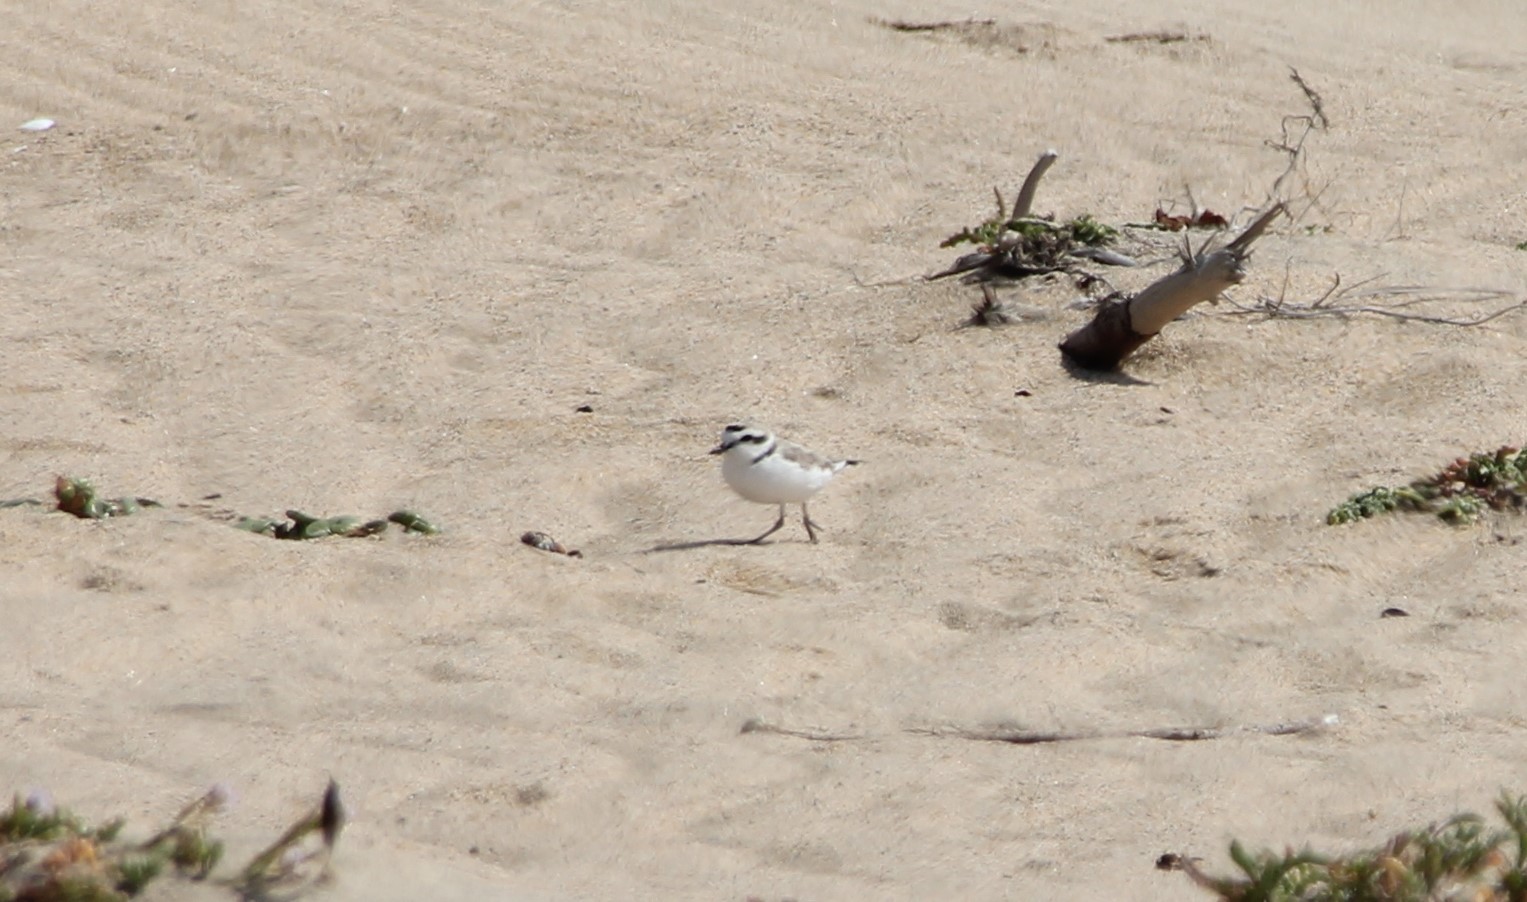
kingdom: Animalia
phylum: Chordata
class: Aves
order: Charadriiformes
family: Charadriidae
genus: Anarhynchus
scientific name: Anarhynchus
